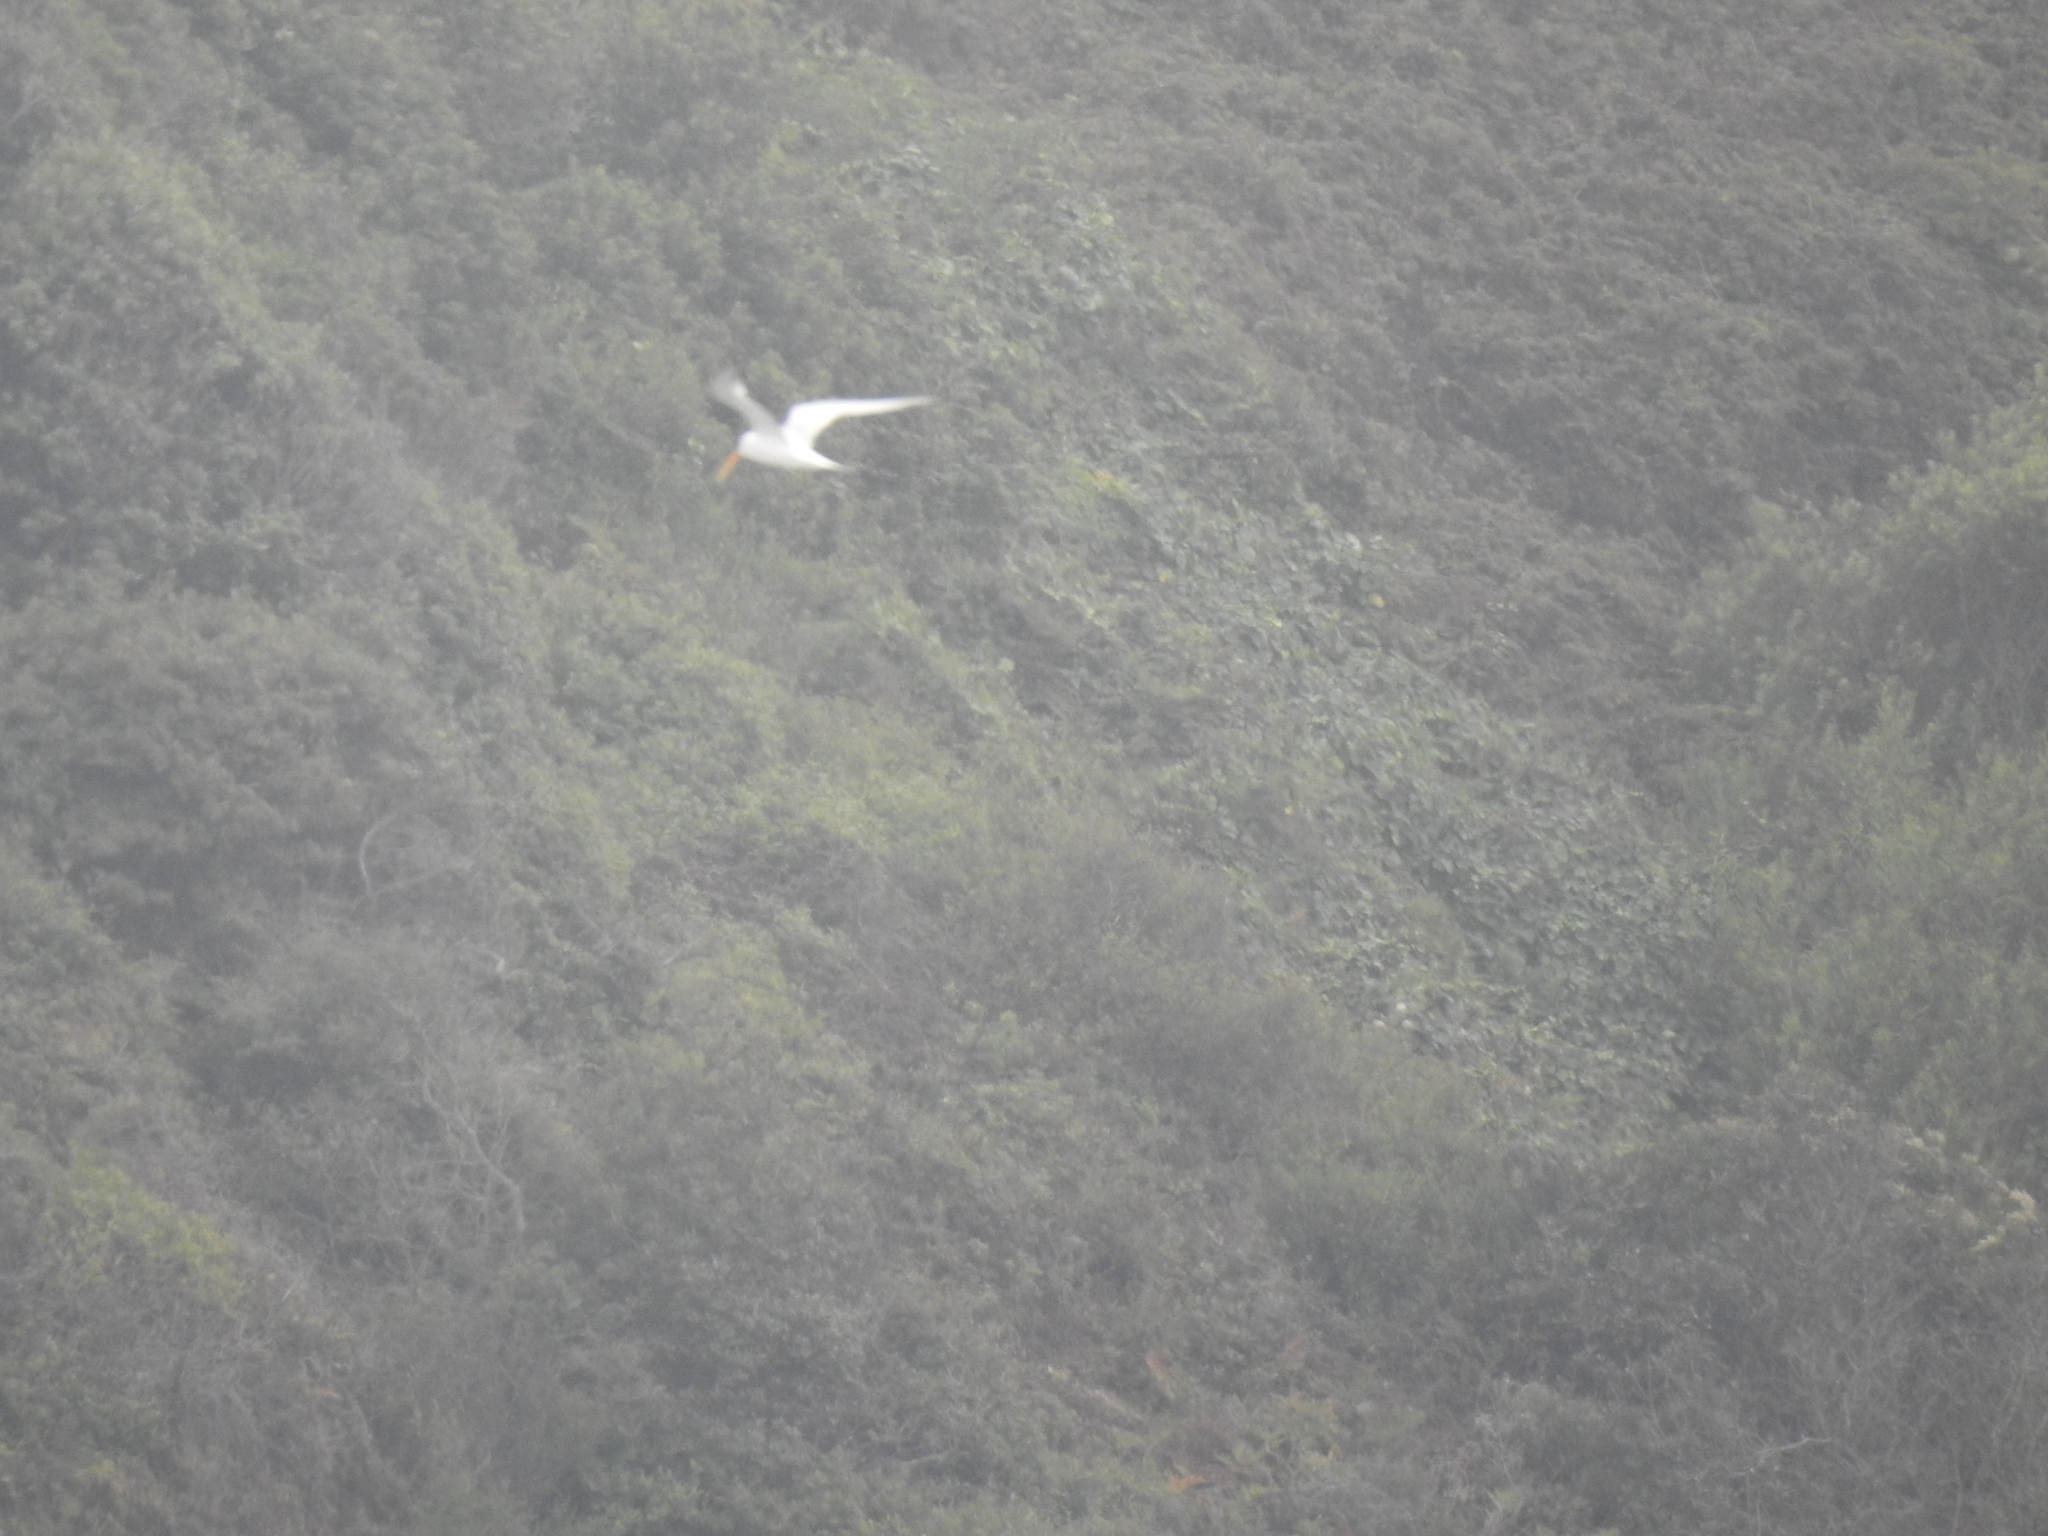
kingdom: Animalia
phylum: Chordata
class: Aves
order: Charadriiformes
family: Laridae
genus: Thalasseus
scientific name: Thalasseus elegans
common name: Elegant tern
